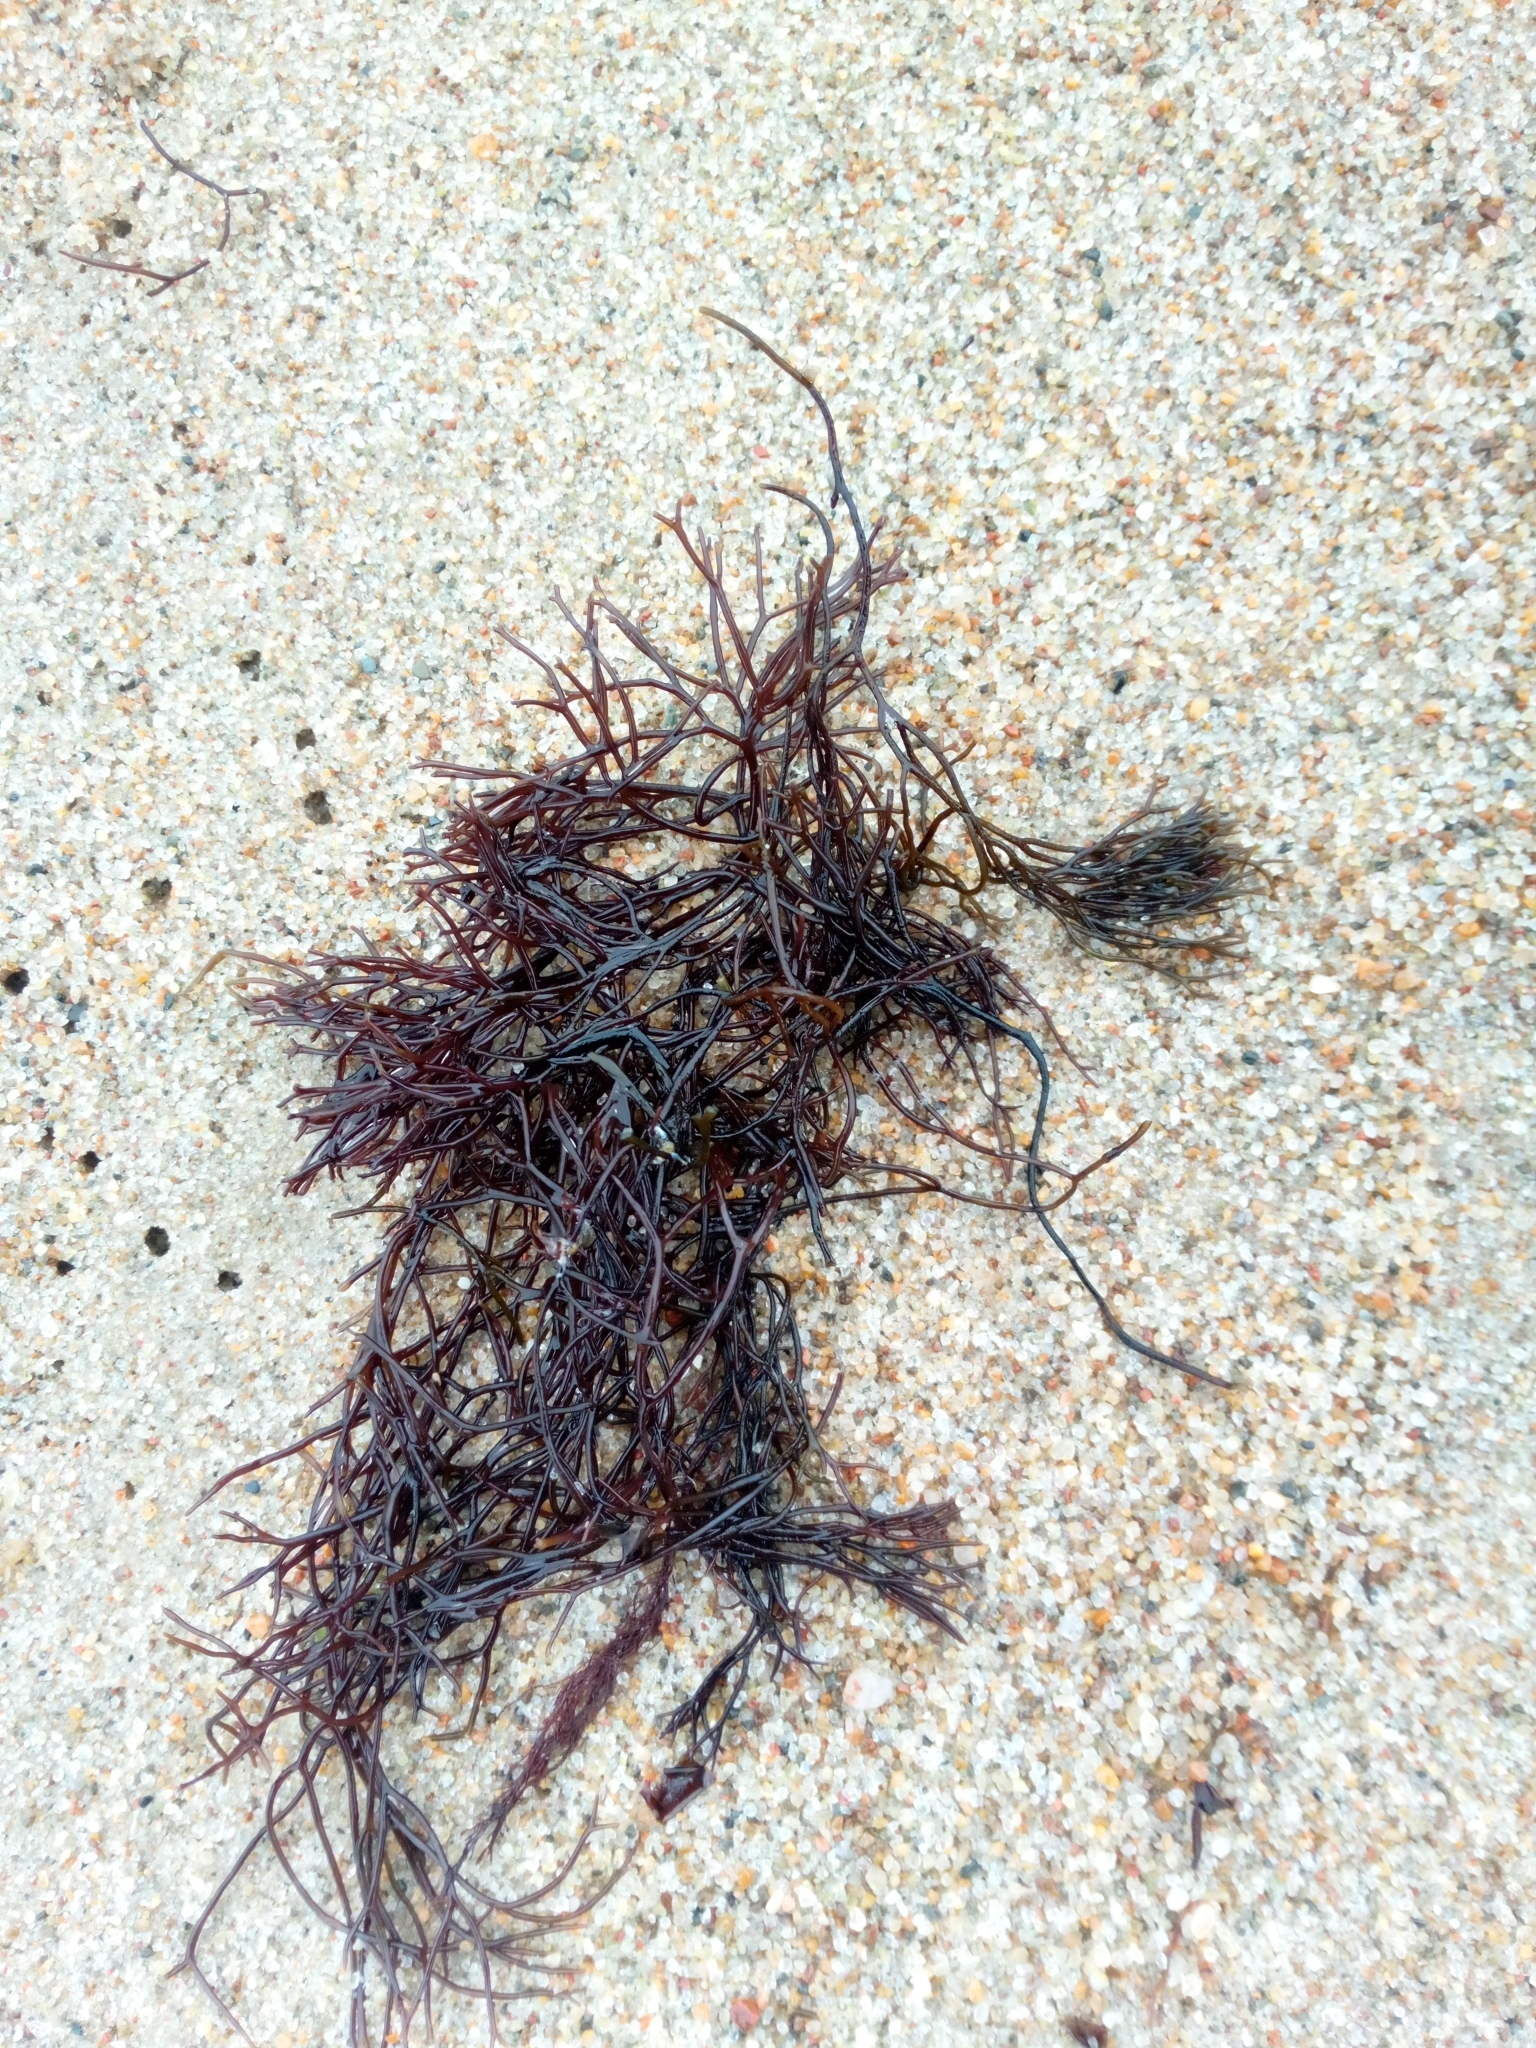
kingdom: Plantae
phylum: Rhodophyta
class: Florideophyceae
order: Gigartinales
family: Furcellariaceae
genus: Furcellaria
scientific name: Furcellaria lumbricalis
